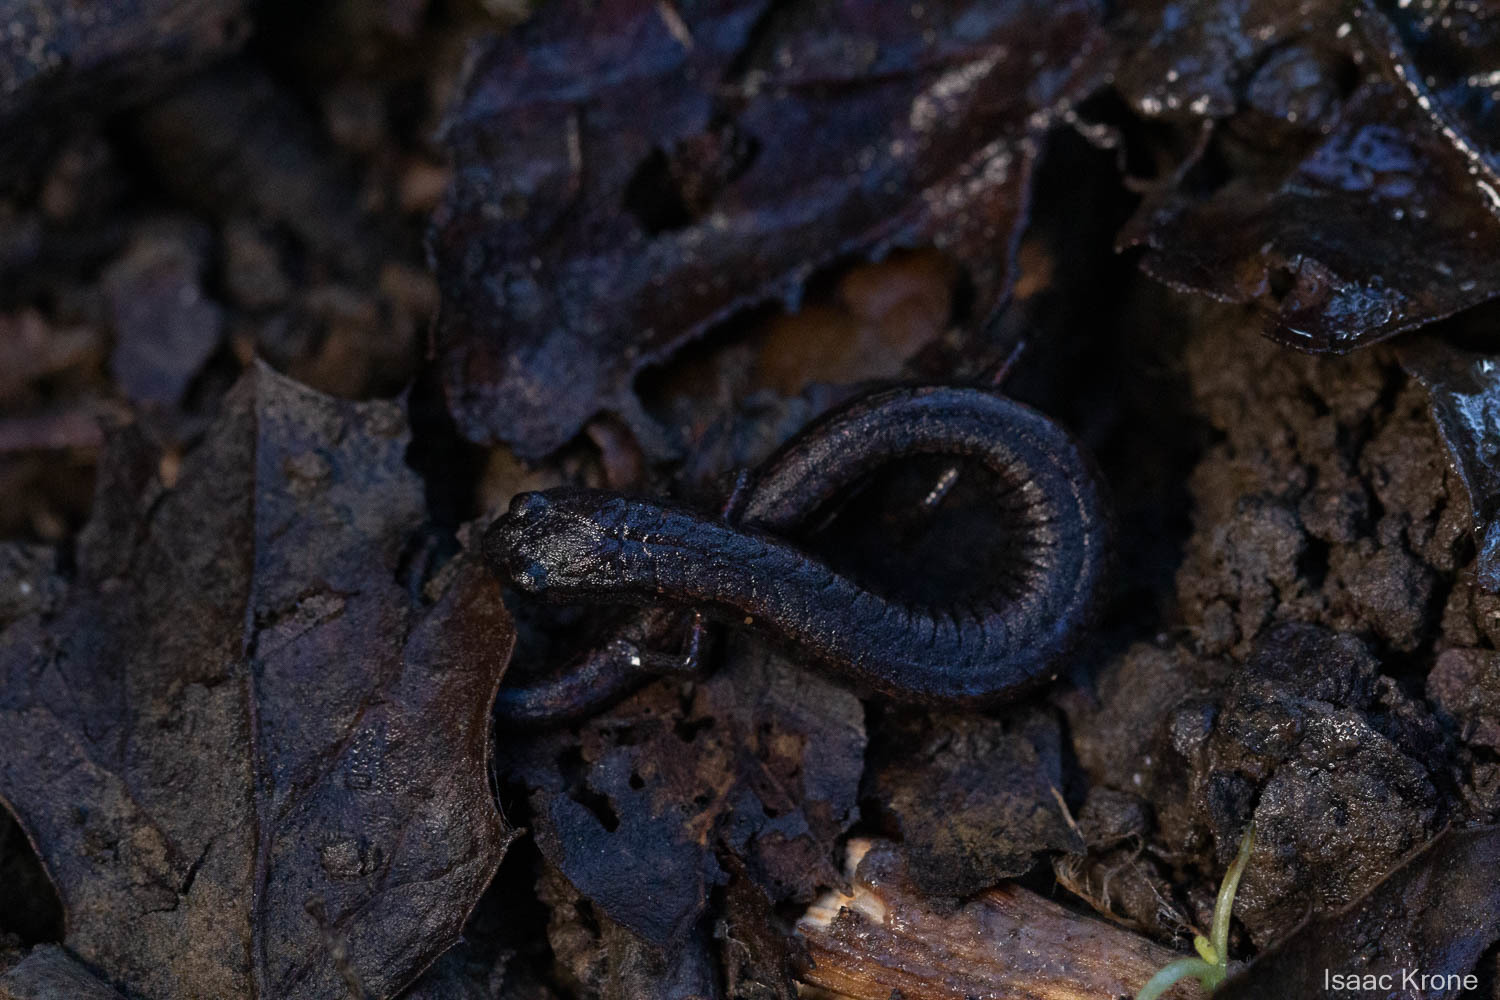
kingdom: Animalia
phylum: Chordata
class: Amphibia
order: Caudata
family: Plethodontidae
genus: Batrachoseps
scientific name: Batrachoseps attenuatus
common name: California slender salamander
